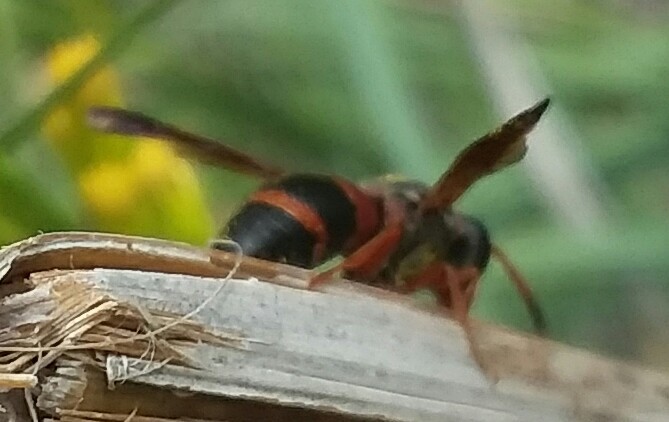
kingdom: Animalia
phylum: Arthropoda
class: Insecta
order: Hymenoptera
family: Eumenidae
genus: Pachodynerus
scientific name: Pachodynerus erynnis
